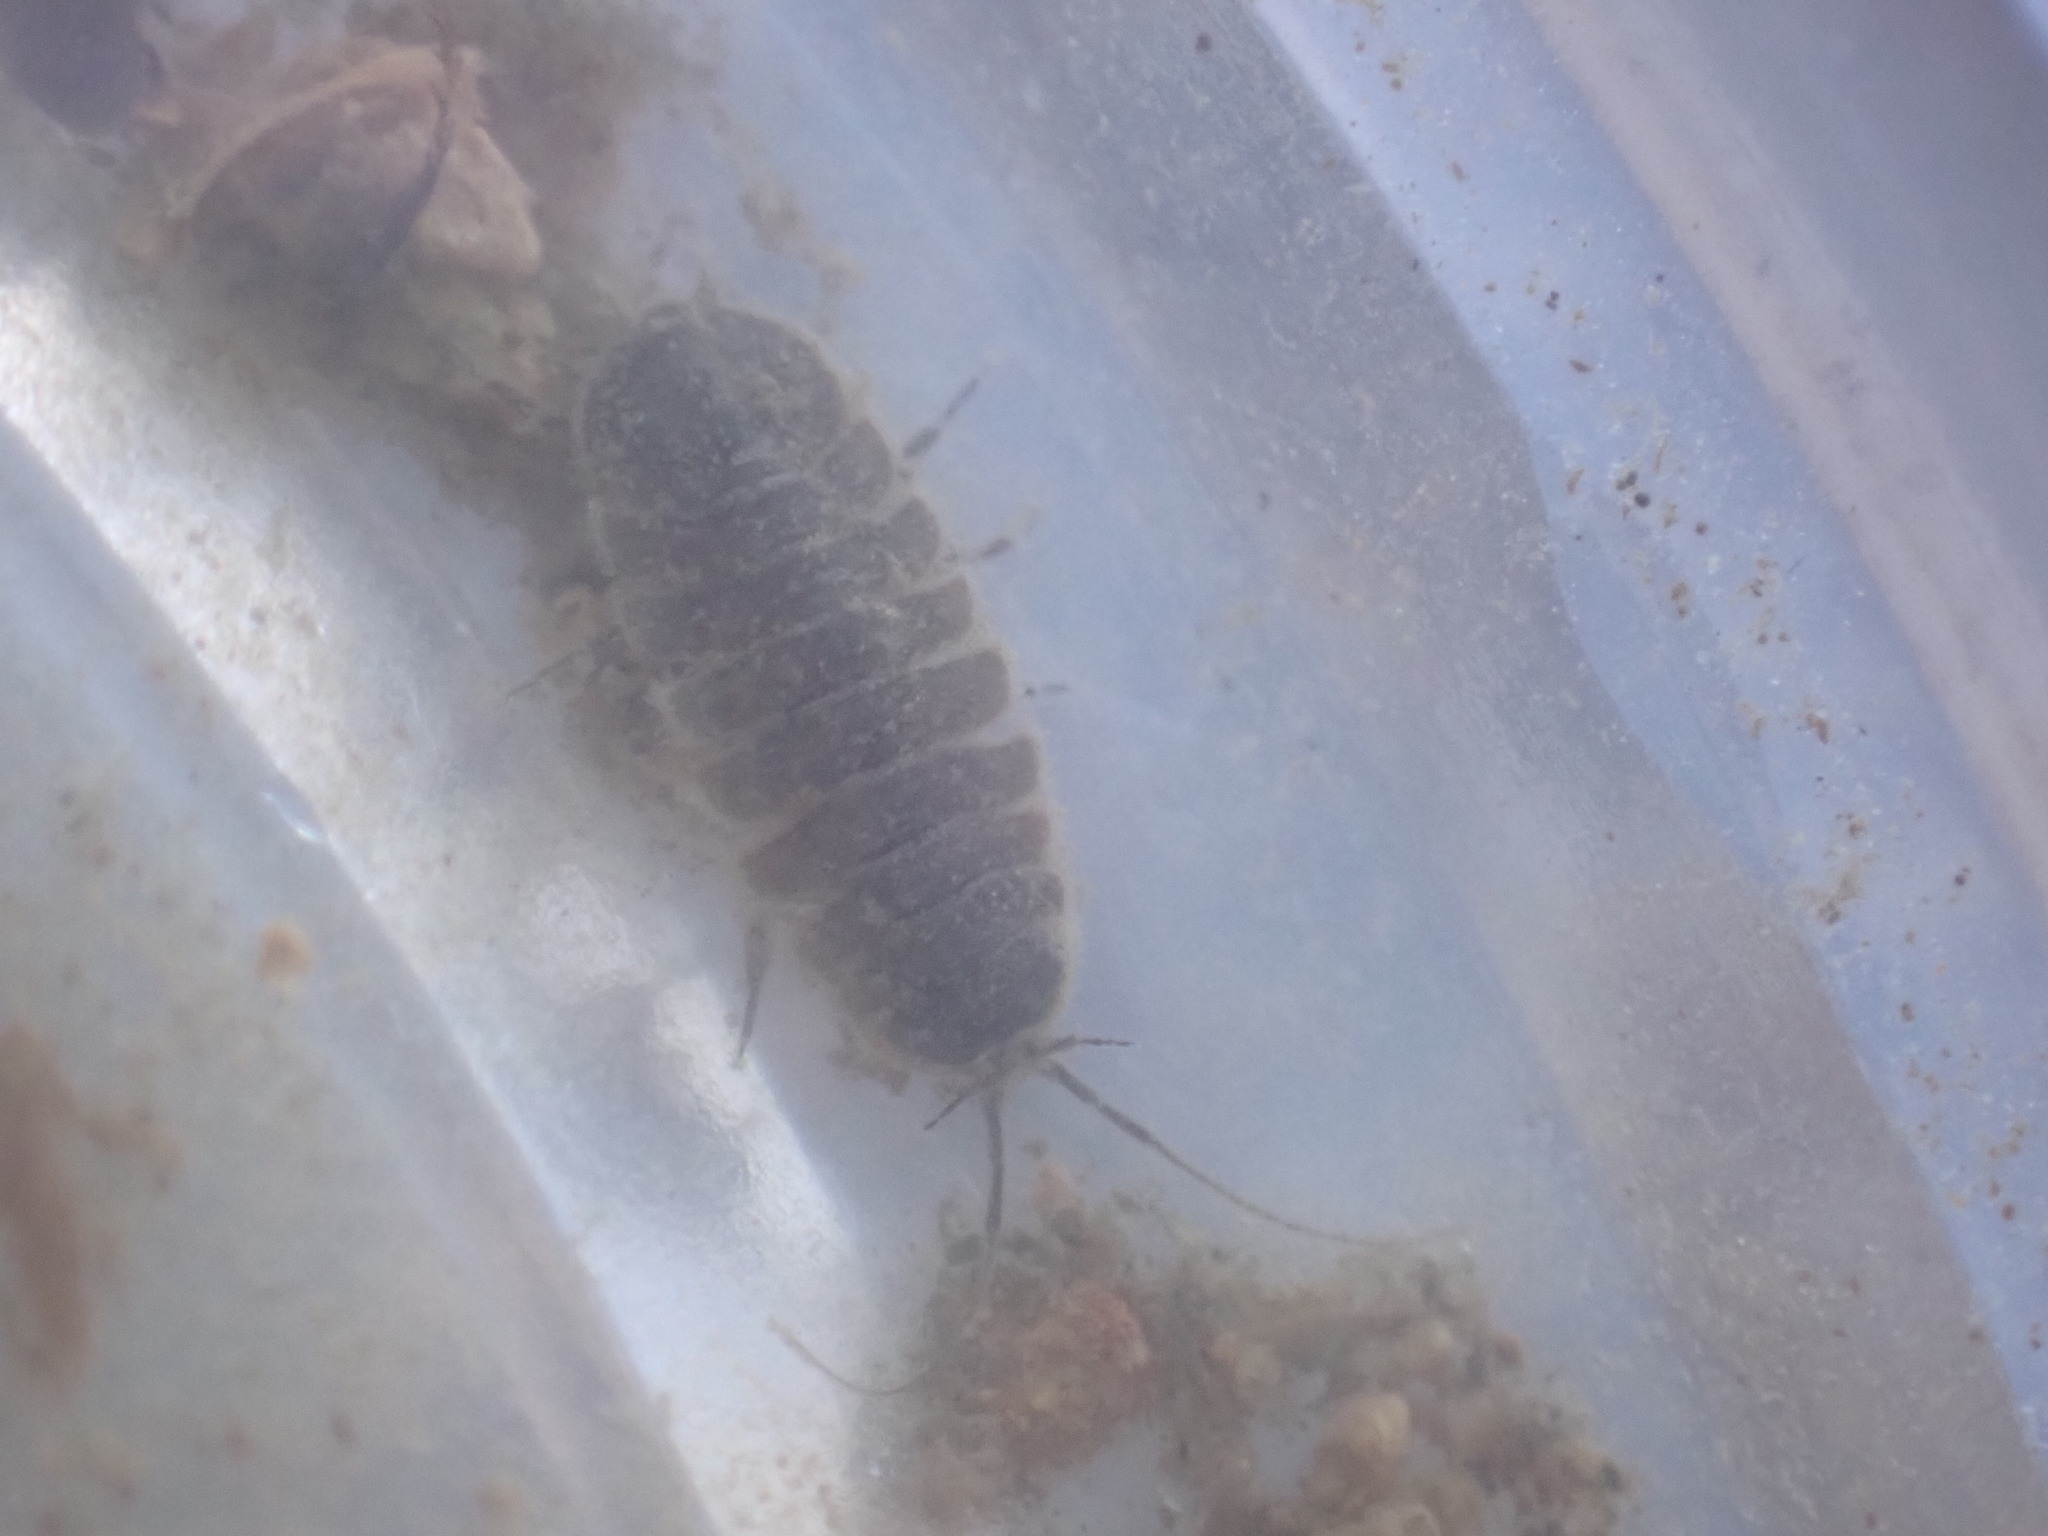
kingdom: Animalia
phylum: Arthropoda
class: Malacostraca
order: Isopoda
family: Asellidae
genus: Lirceus
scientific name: Lirceus brachyurus
